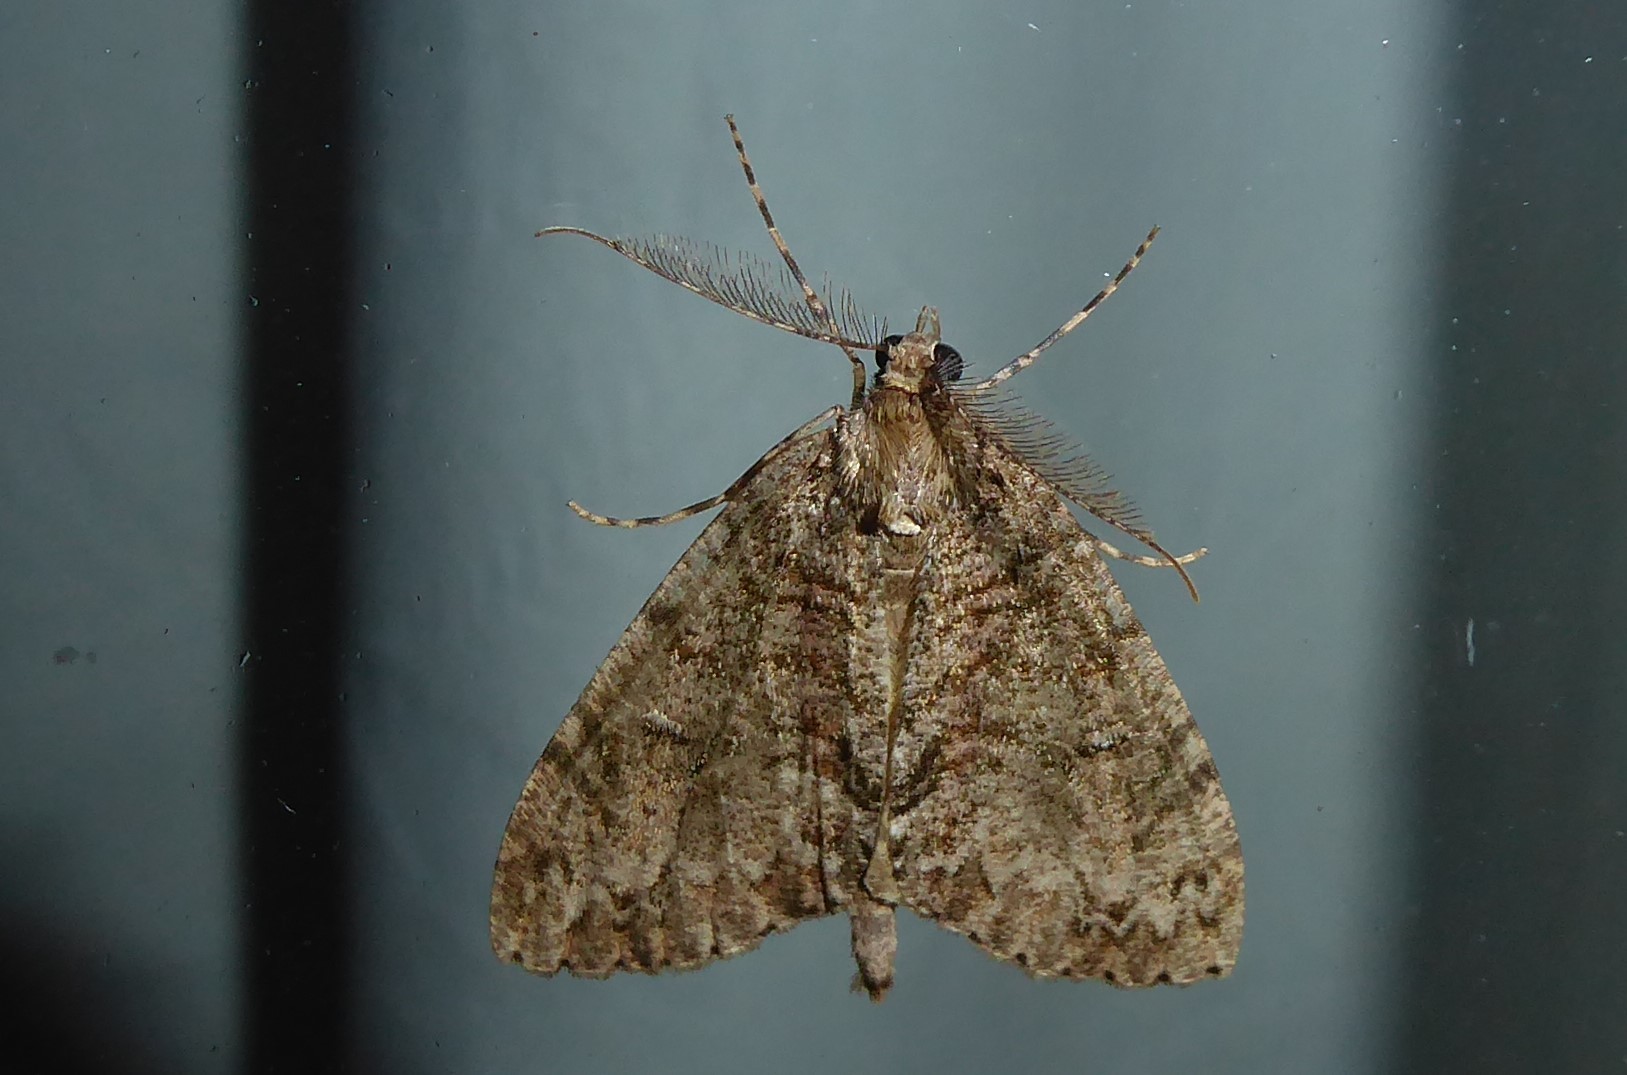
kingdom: Animalia
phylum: Arthropoda
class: Insecta
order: Lepidoptera
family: Geometridae
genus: Pseudocoremia
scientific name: Pseudocoremia suavis
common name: Common forest looper
